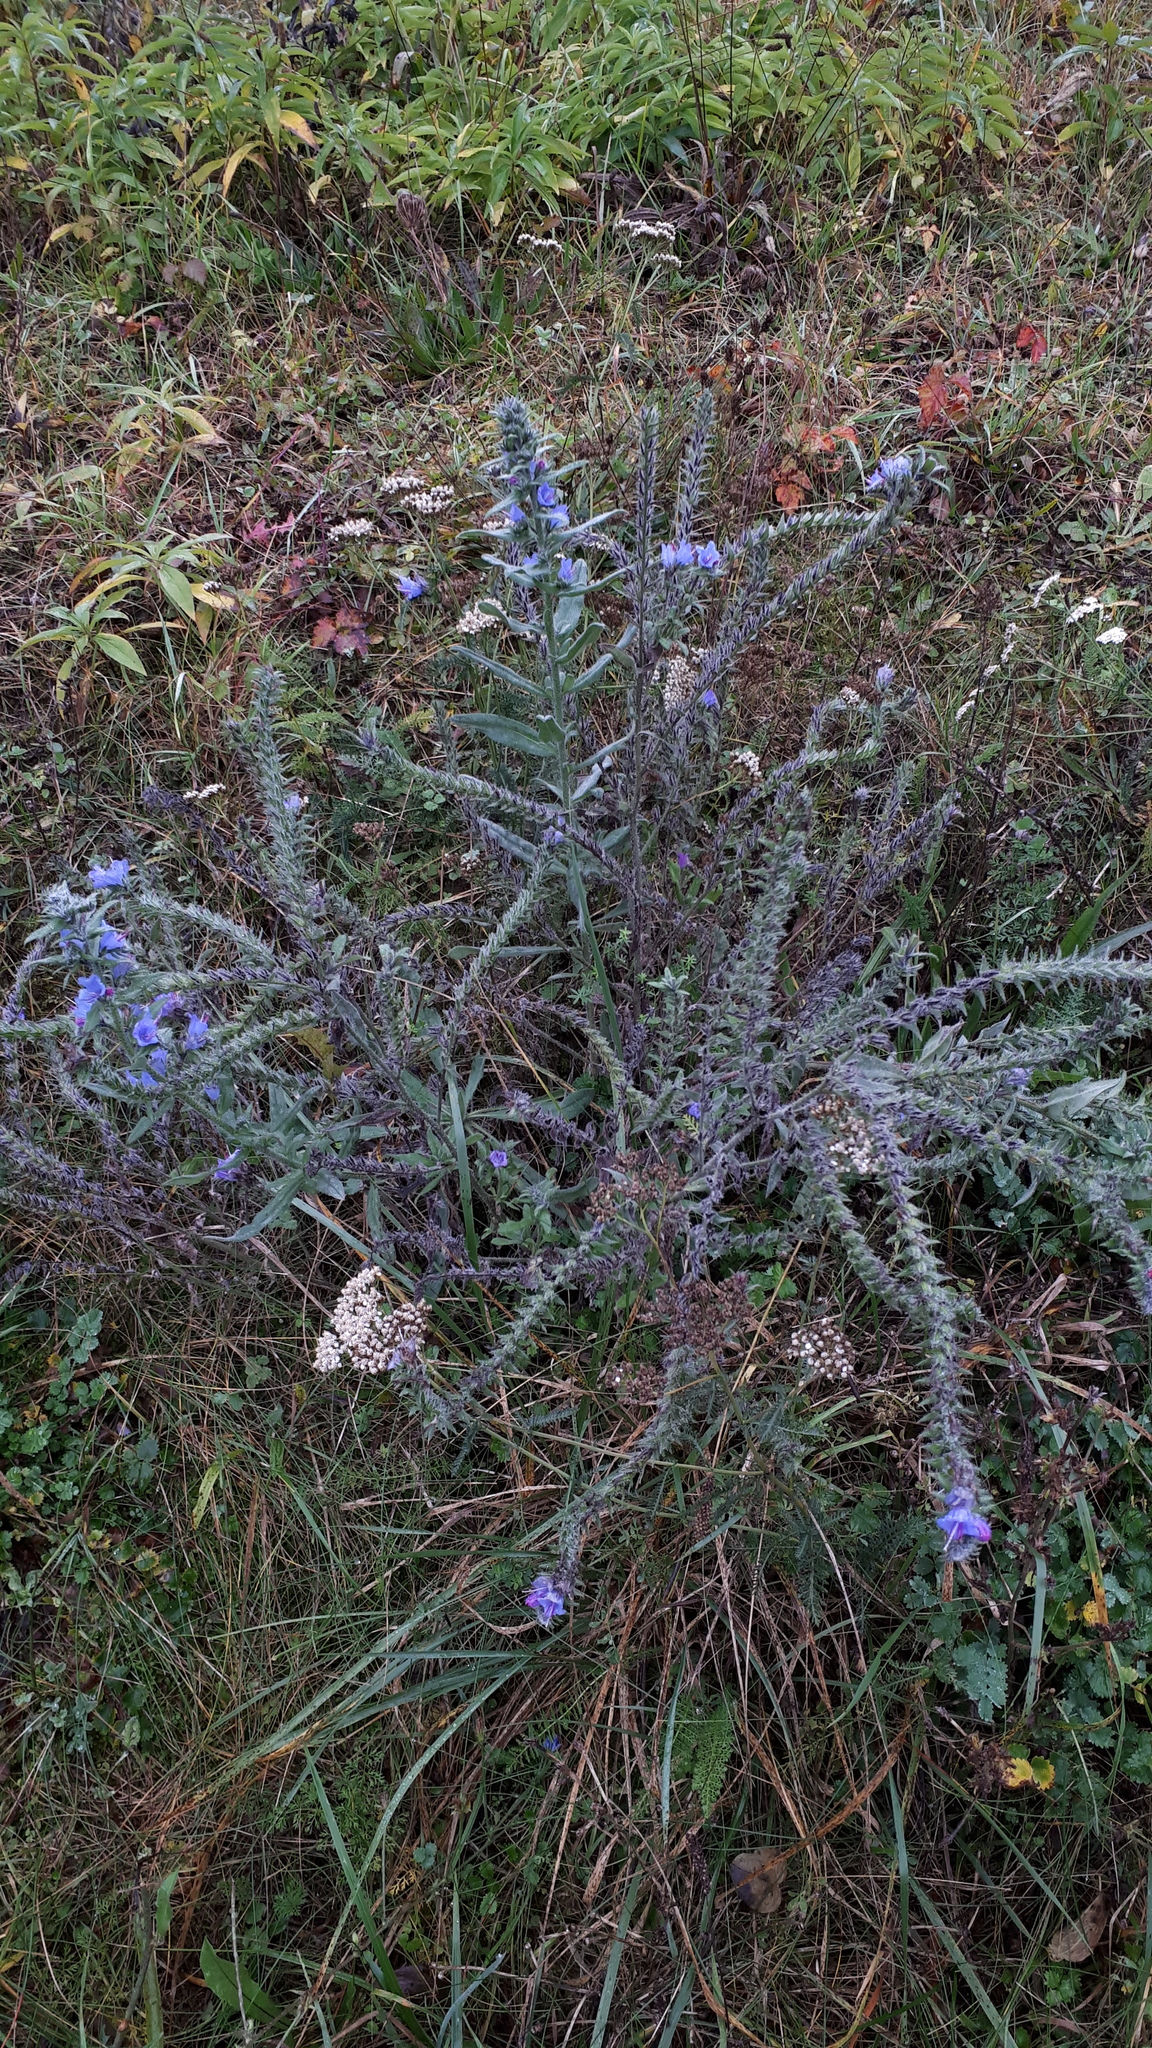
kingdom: Plantae
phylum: Tracheophyta
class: Magnoliopsida
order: Boraginales
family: Boraginaceae
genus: Echium
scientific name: Echium vulgare
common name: Common viper's bugloss
